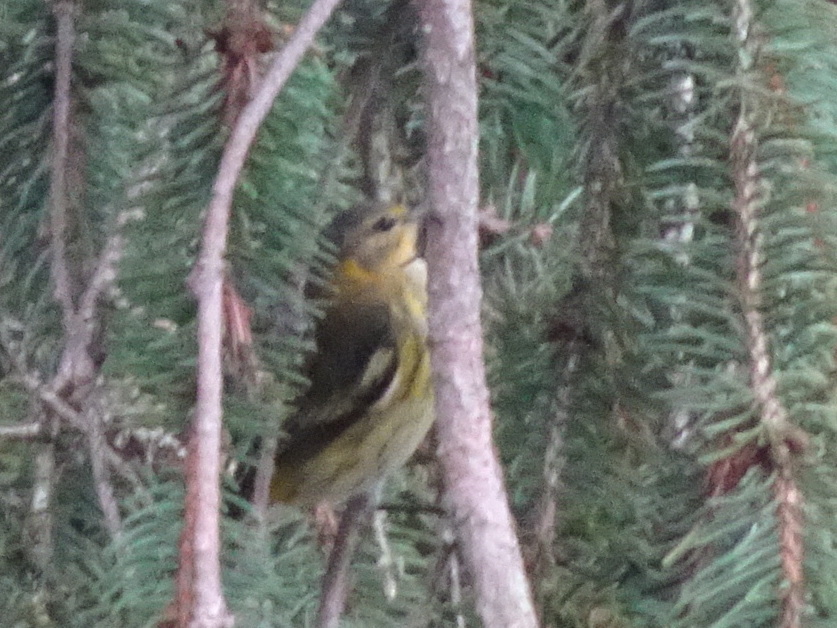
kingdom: Animalia
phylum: Chordata
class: Aves
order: Passeriformes
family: Parulidae
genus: Setophaga
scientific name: Setophaga tigrina
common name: Cape may warbler
